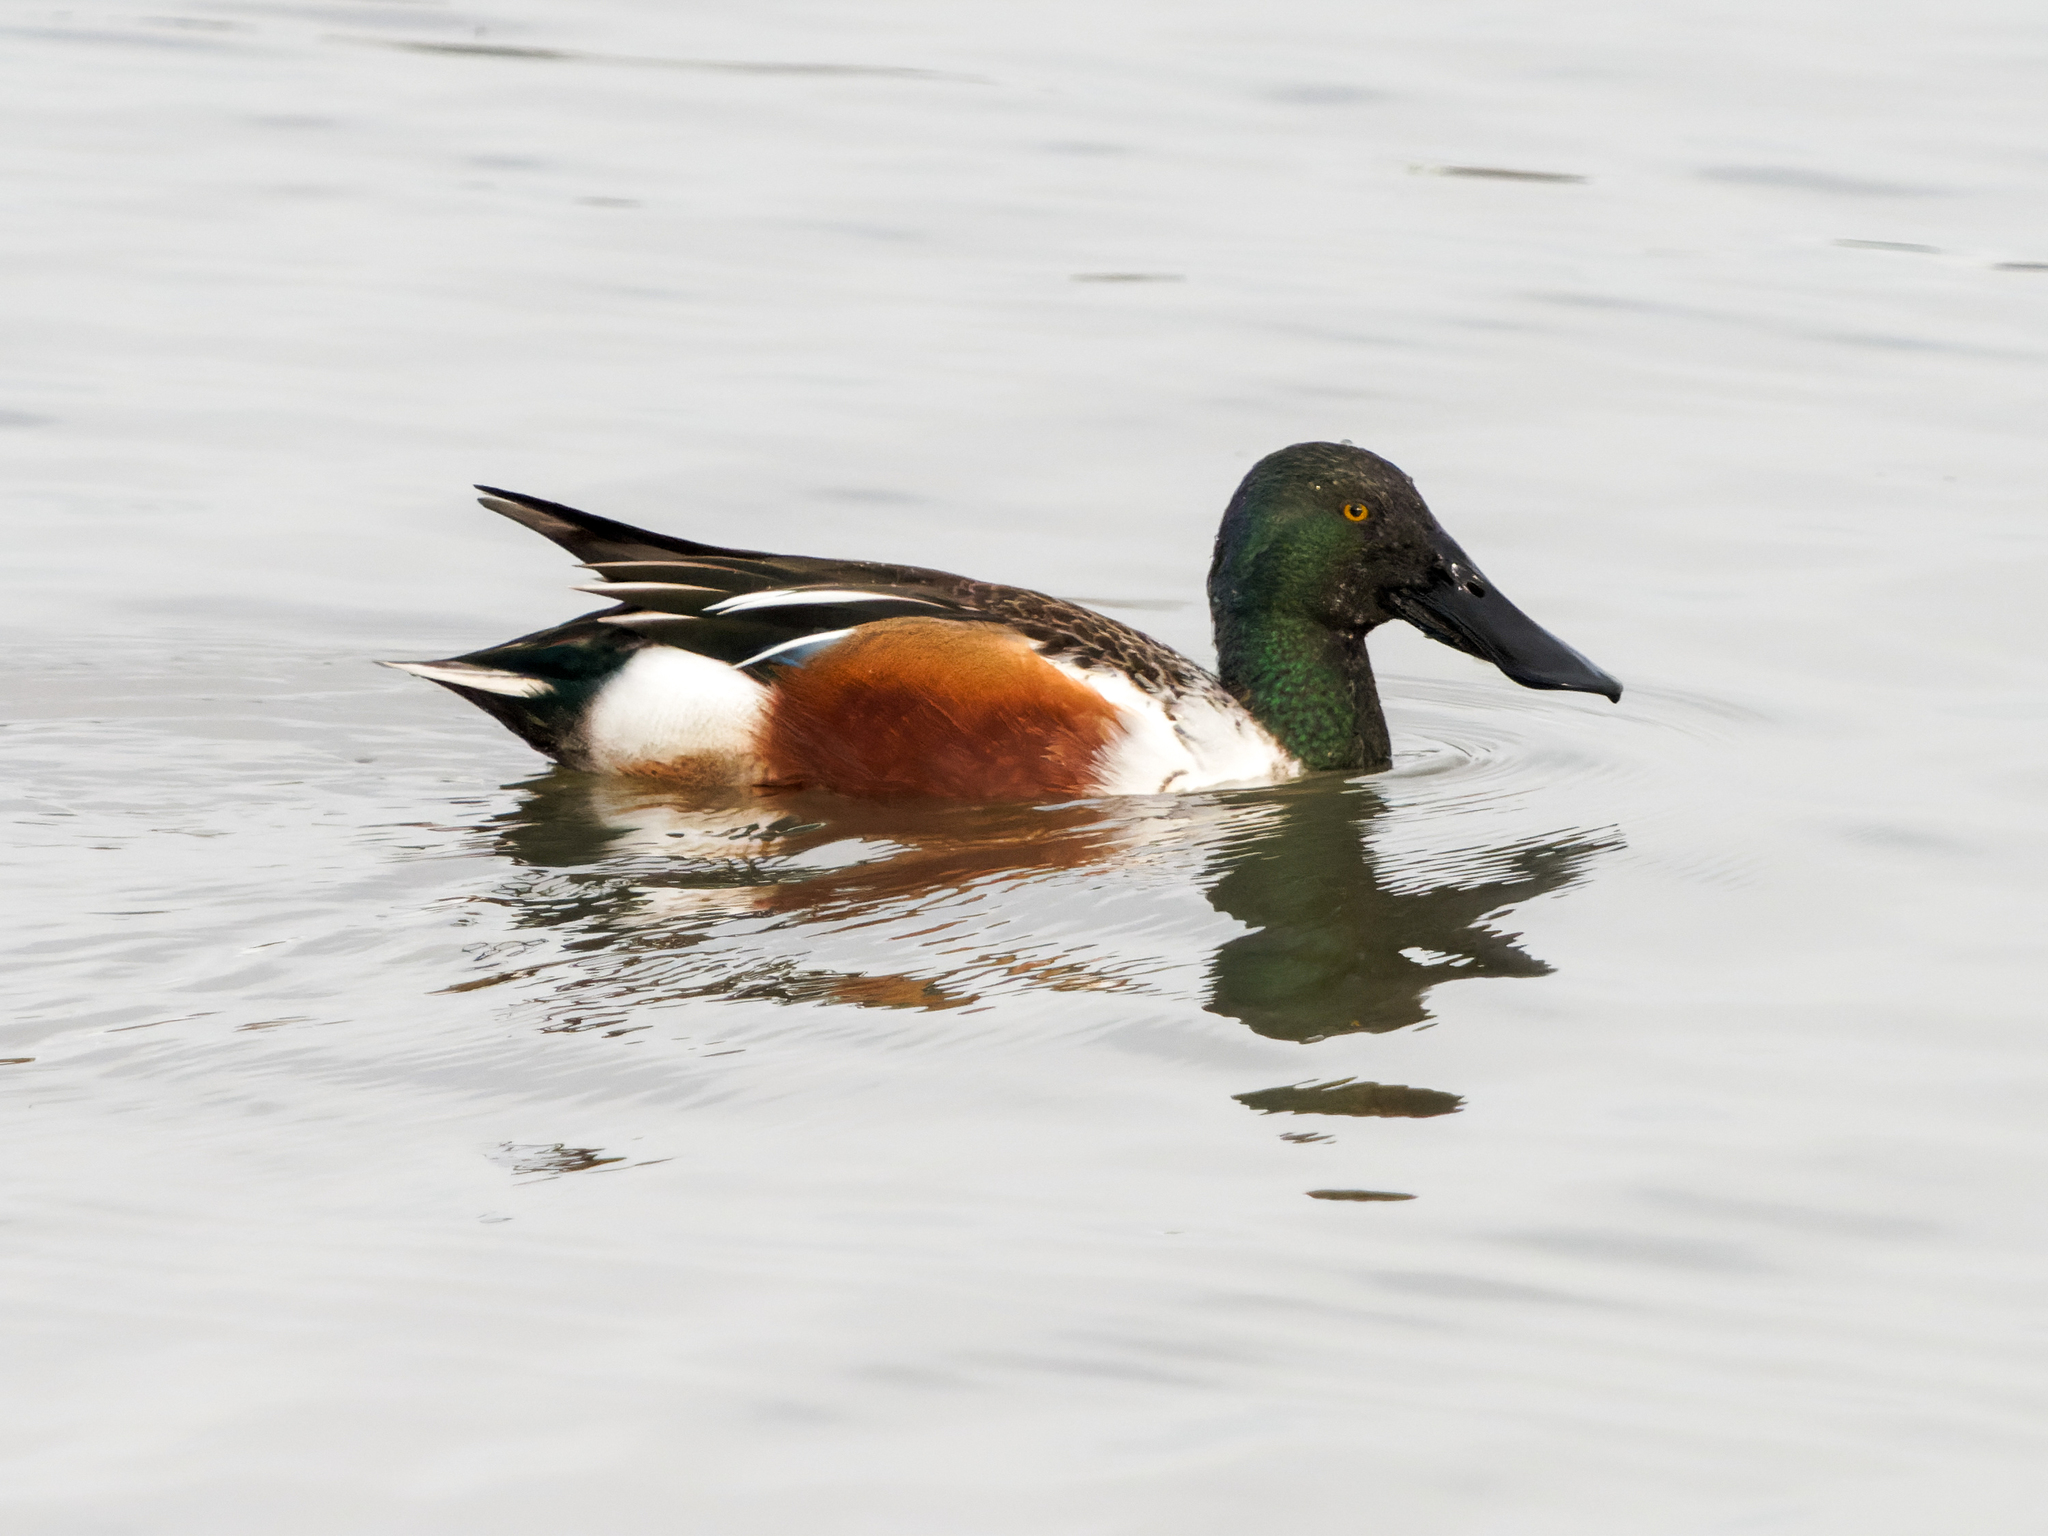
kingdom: Animalia
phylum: Chordata
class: Aves
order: Anseriformes
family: Anatidae
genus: Spatula
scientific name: Spatula clypeata
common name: Northern shoveler
